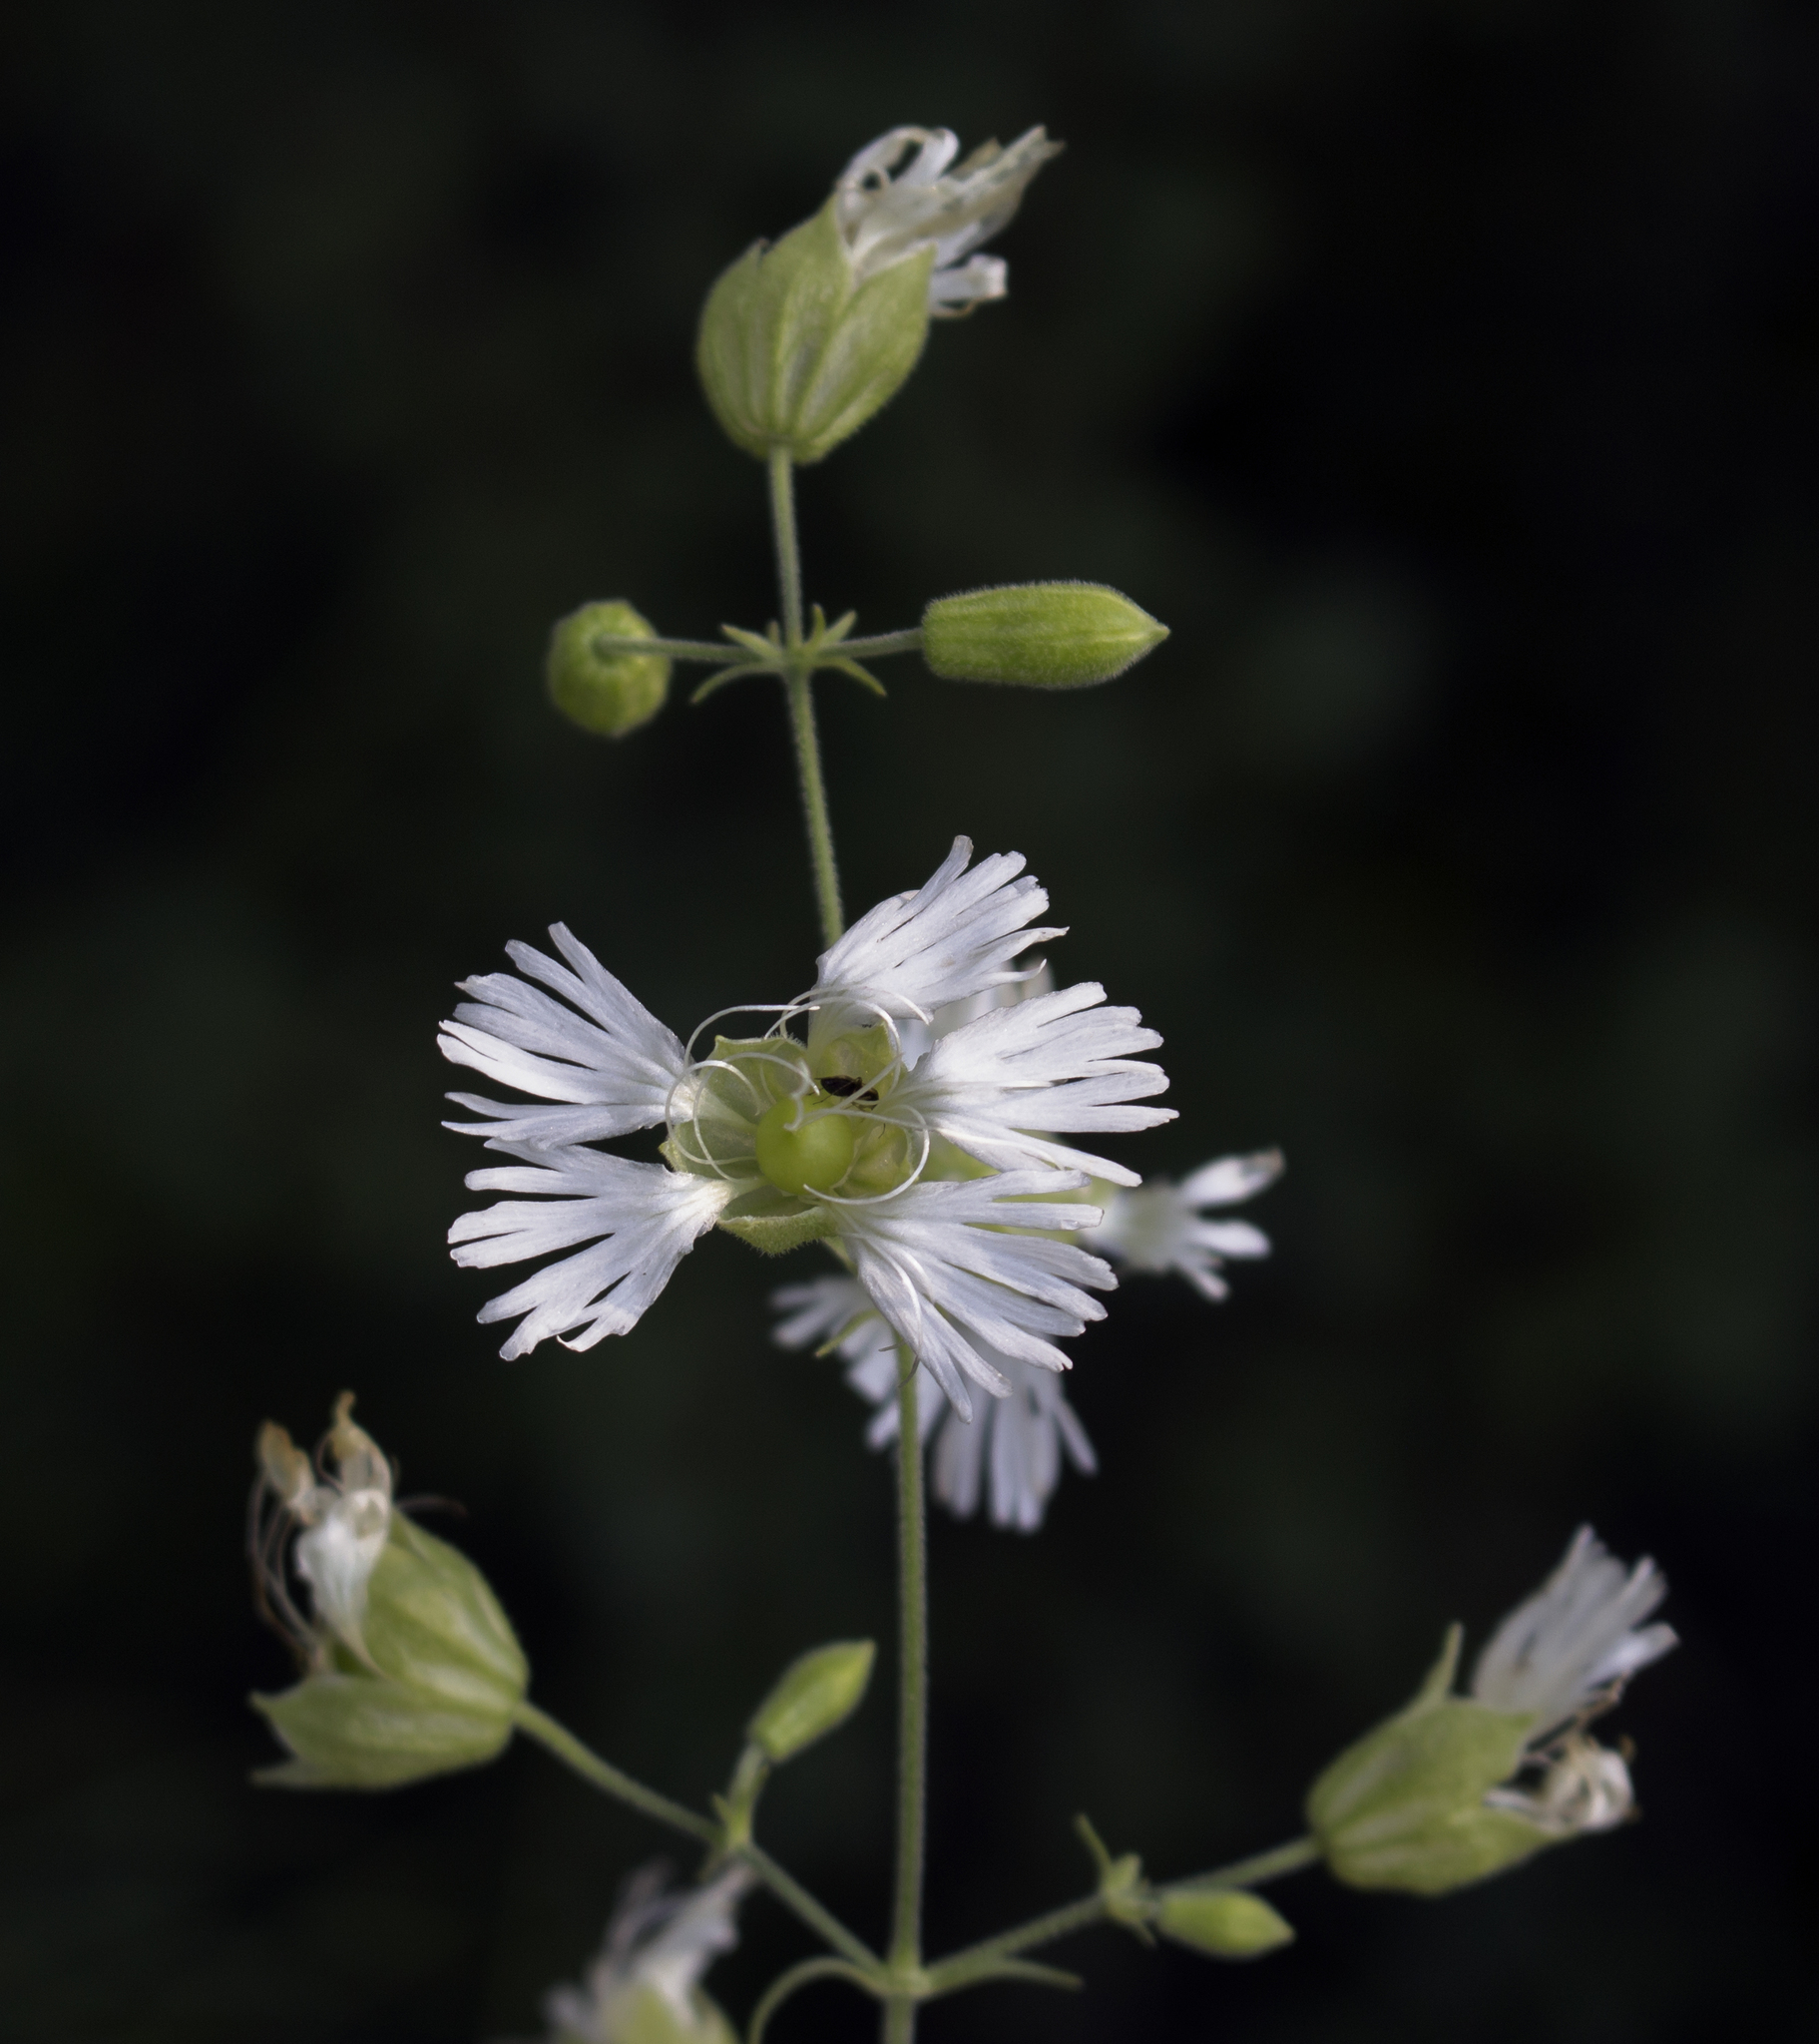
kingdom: Plantae
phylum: Tracheophyta
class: Magnoliopsida
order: Caryophyllales
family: Caryophyllaceae
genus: Silene
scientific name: Silene stellata
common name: Starry campion
